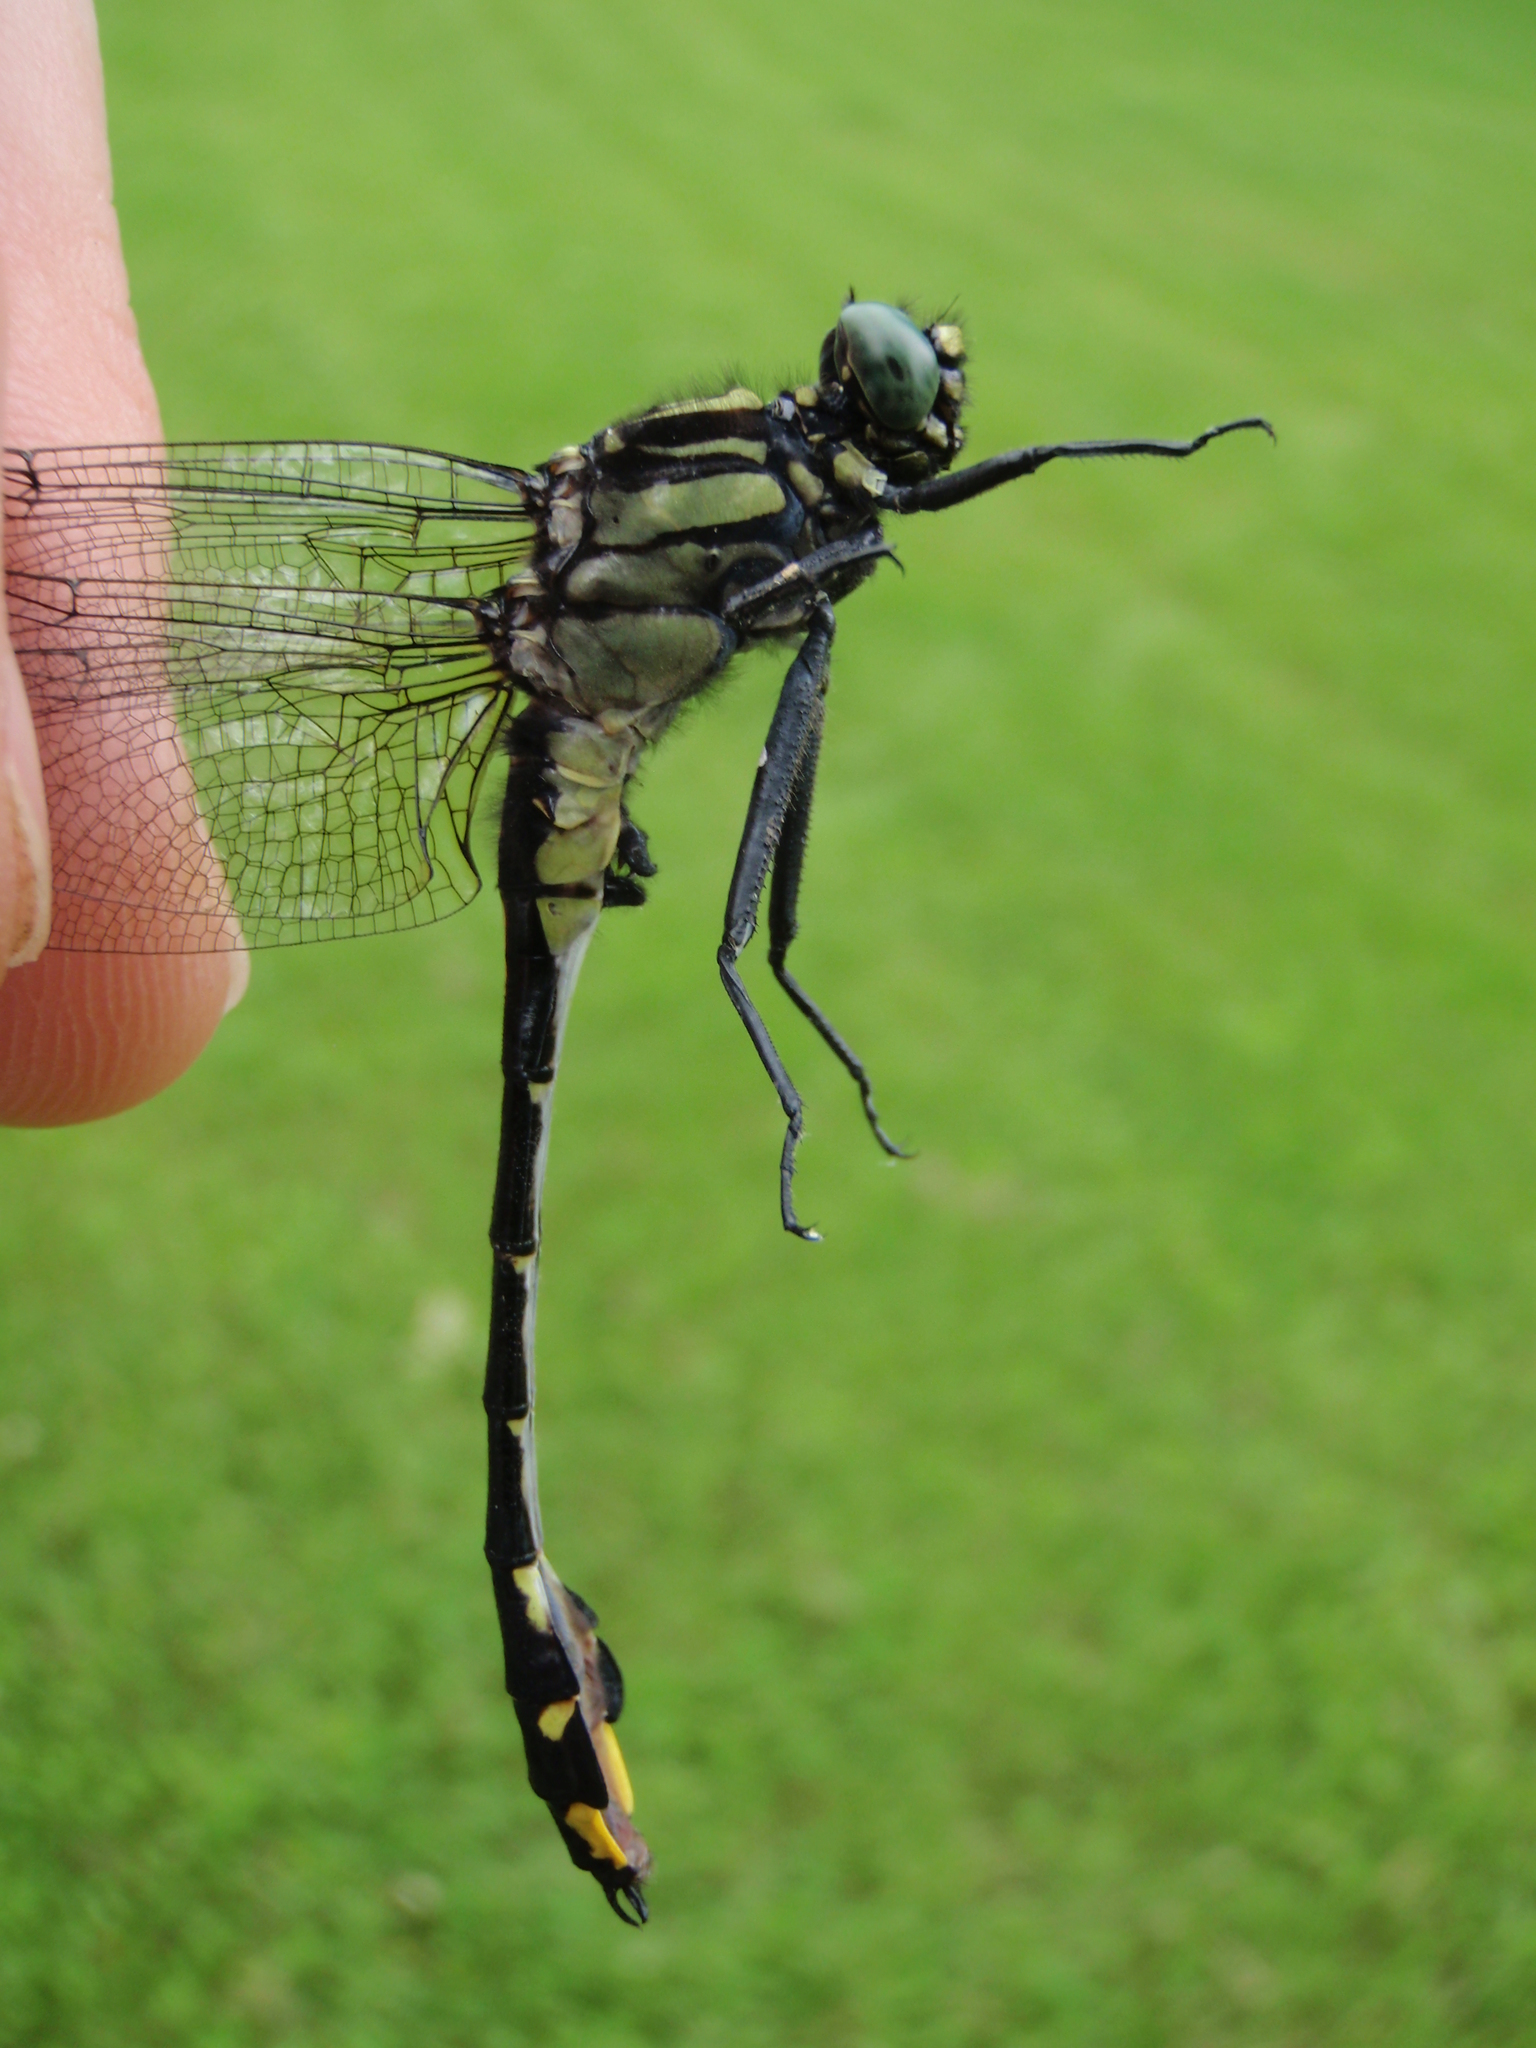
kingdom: Animalia
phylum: Arthropoda
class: Insecta
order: Odonata
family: Gomphidae
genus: Gomphurus
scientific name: Gomphurus vastus
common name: Cobra clubtail
